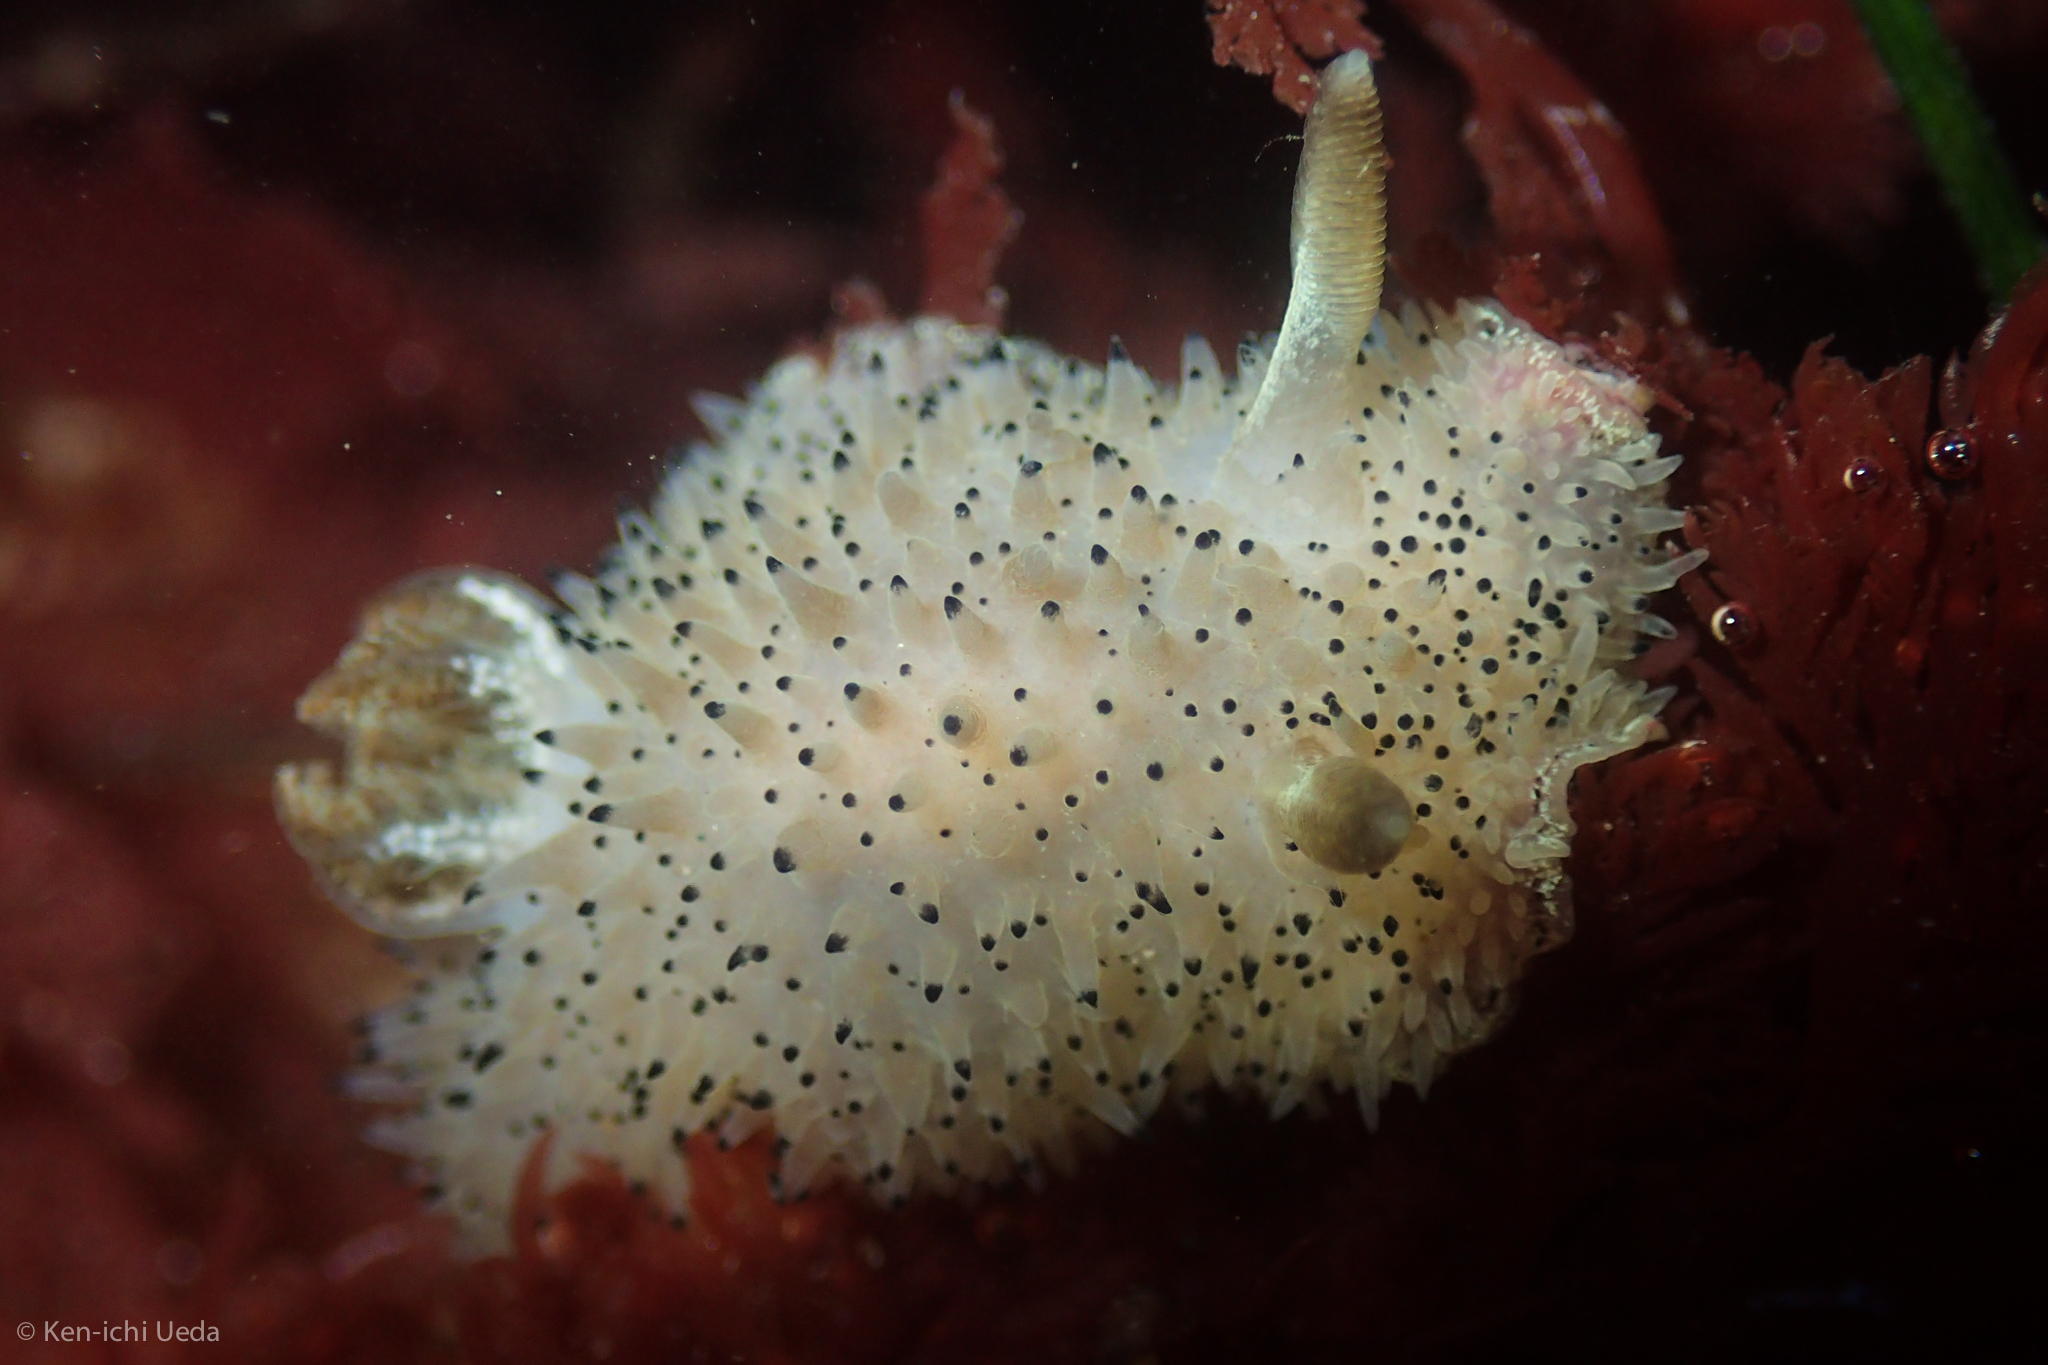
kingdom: Animalia
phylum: Mollusca
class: Gastropoda
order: Nudibranchia
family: Onchidorididae
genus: Acanthodoris
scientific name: Acanthodoris rhodoceras
